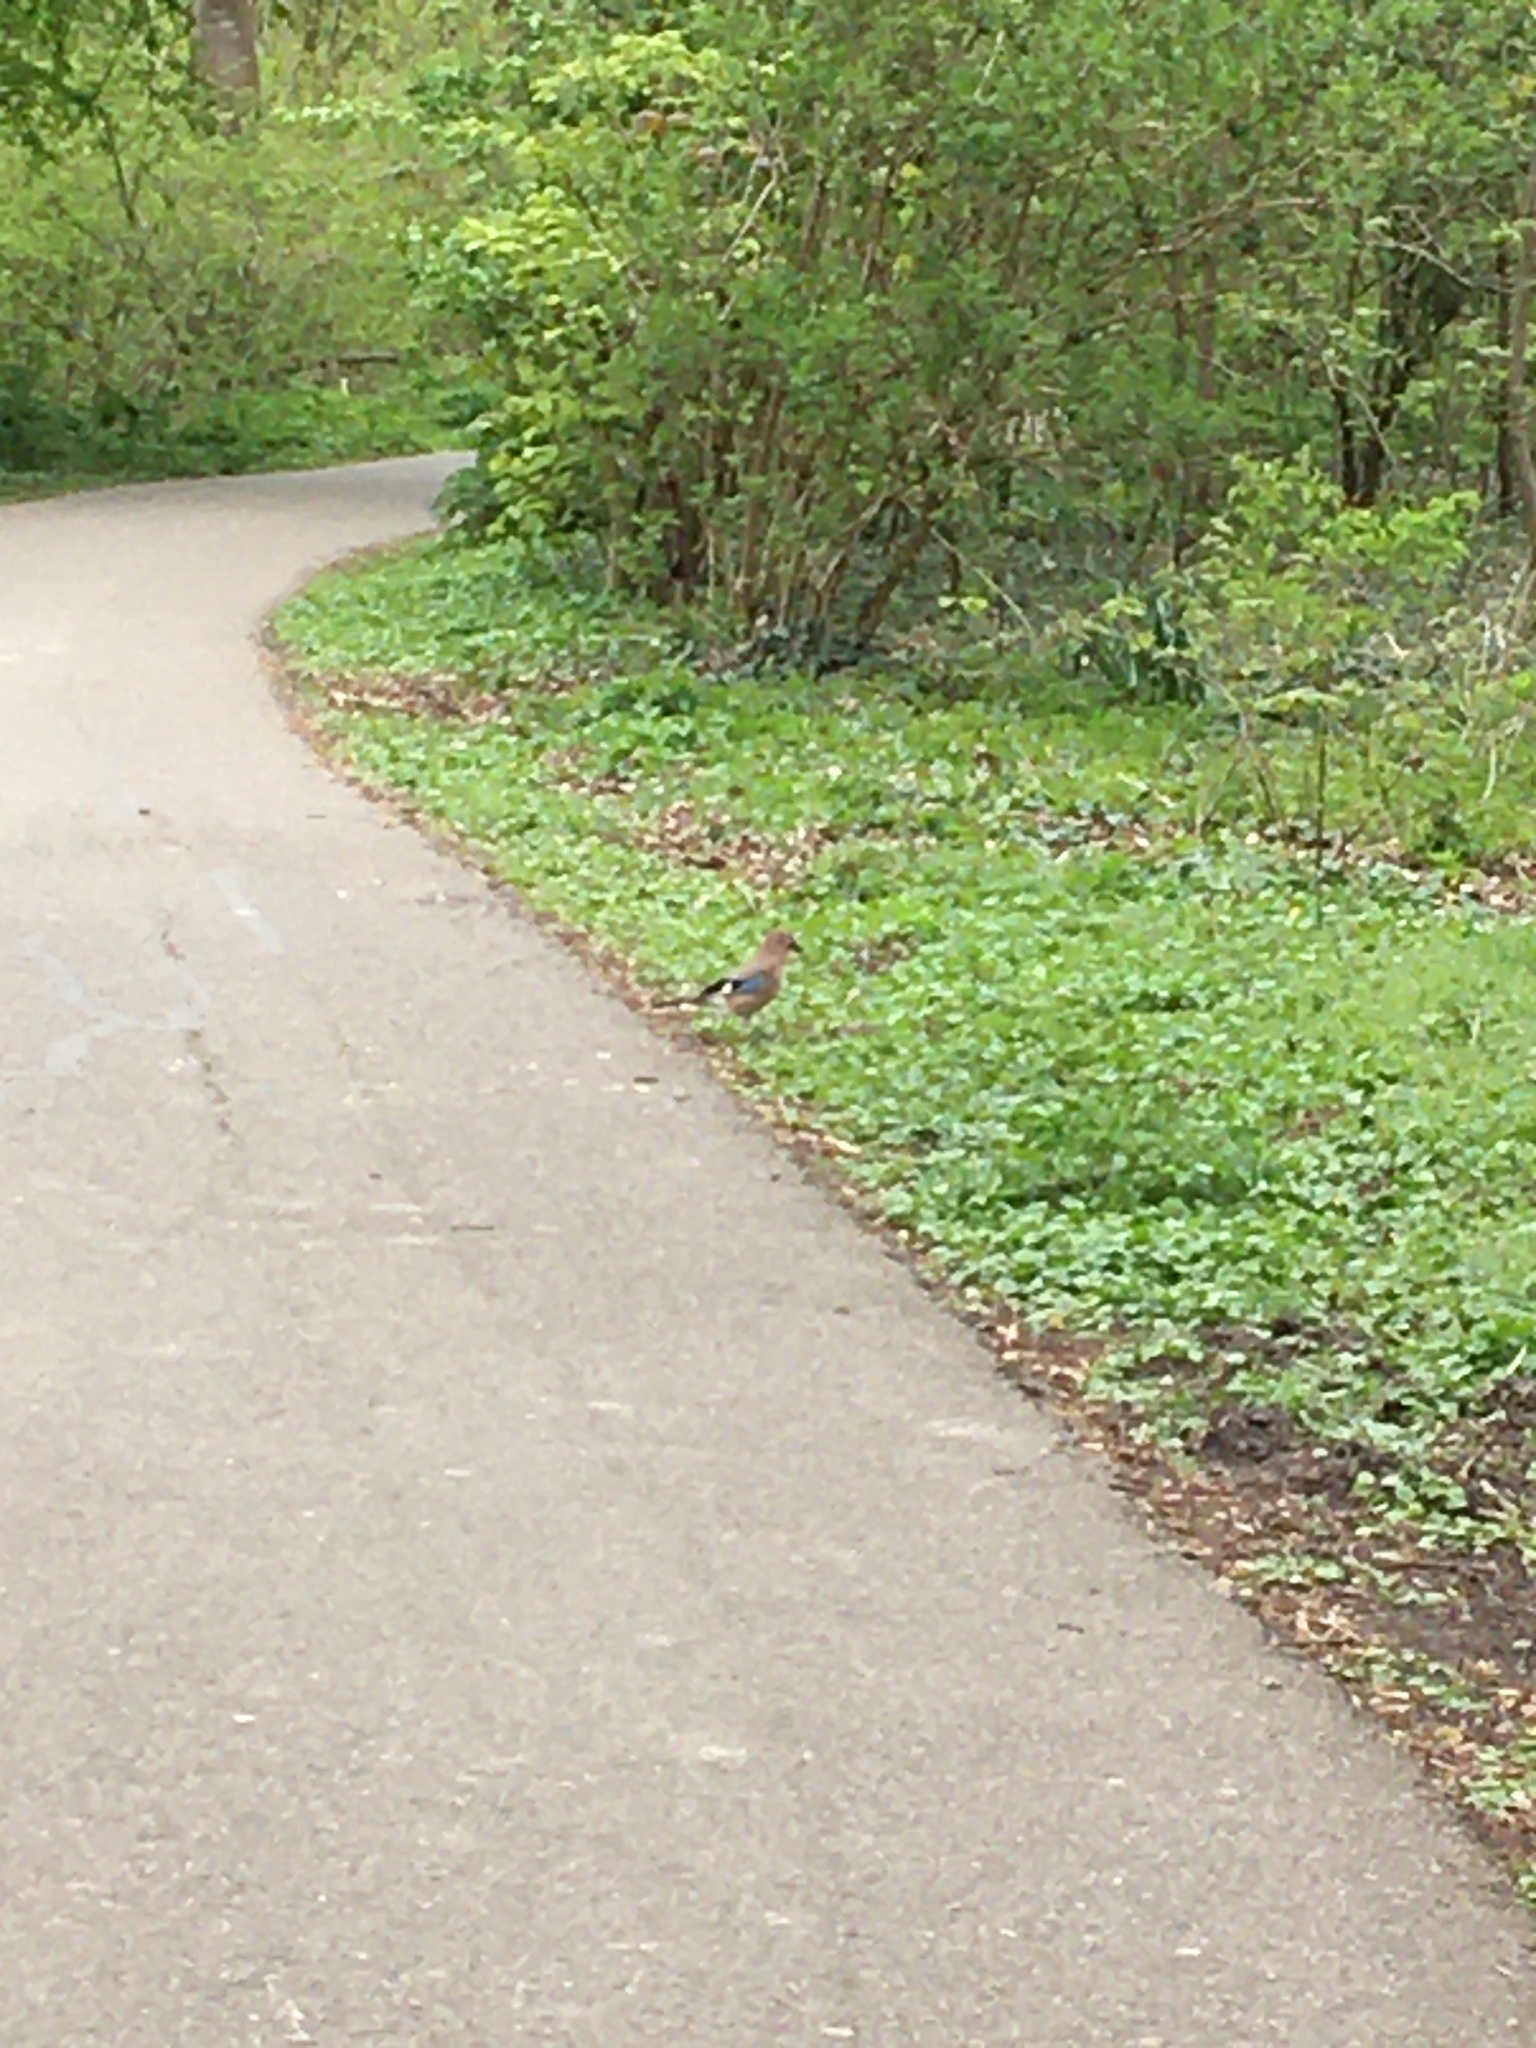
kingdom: Animalia
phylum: Chordata
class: Aves
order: Passeriformes
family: Corvidae
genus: Garrulus
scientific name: Garrulus glandarius
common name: Eurasian jay
